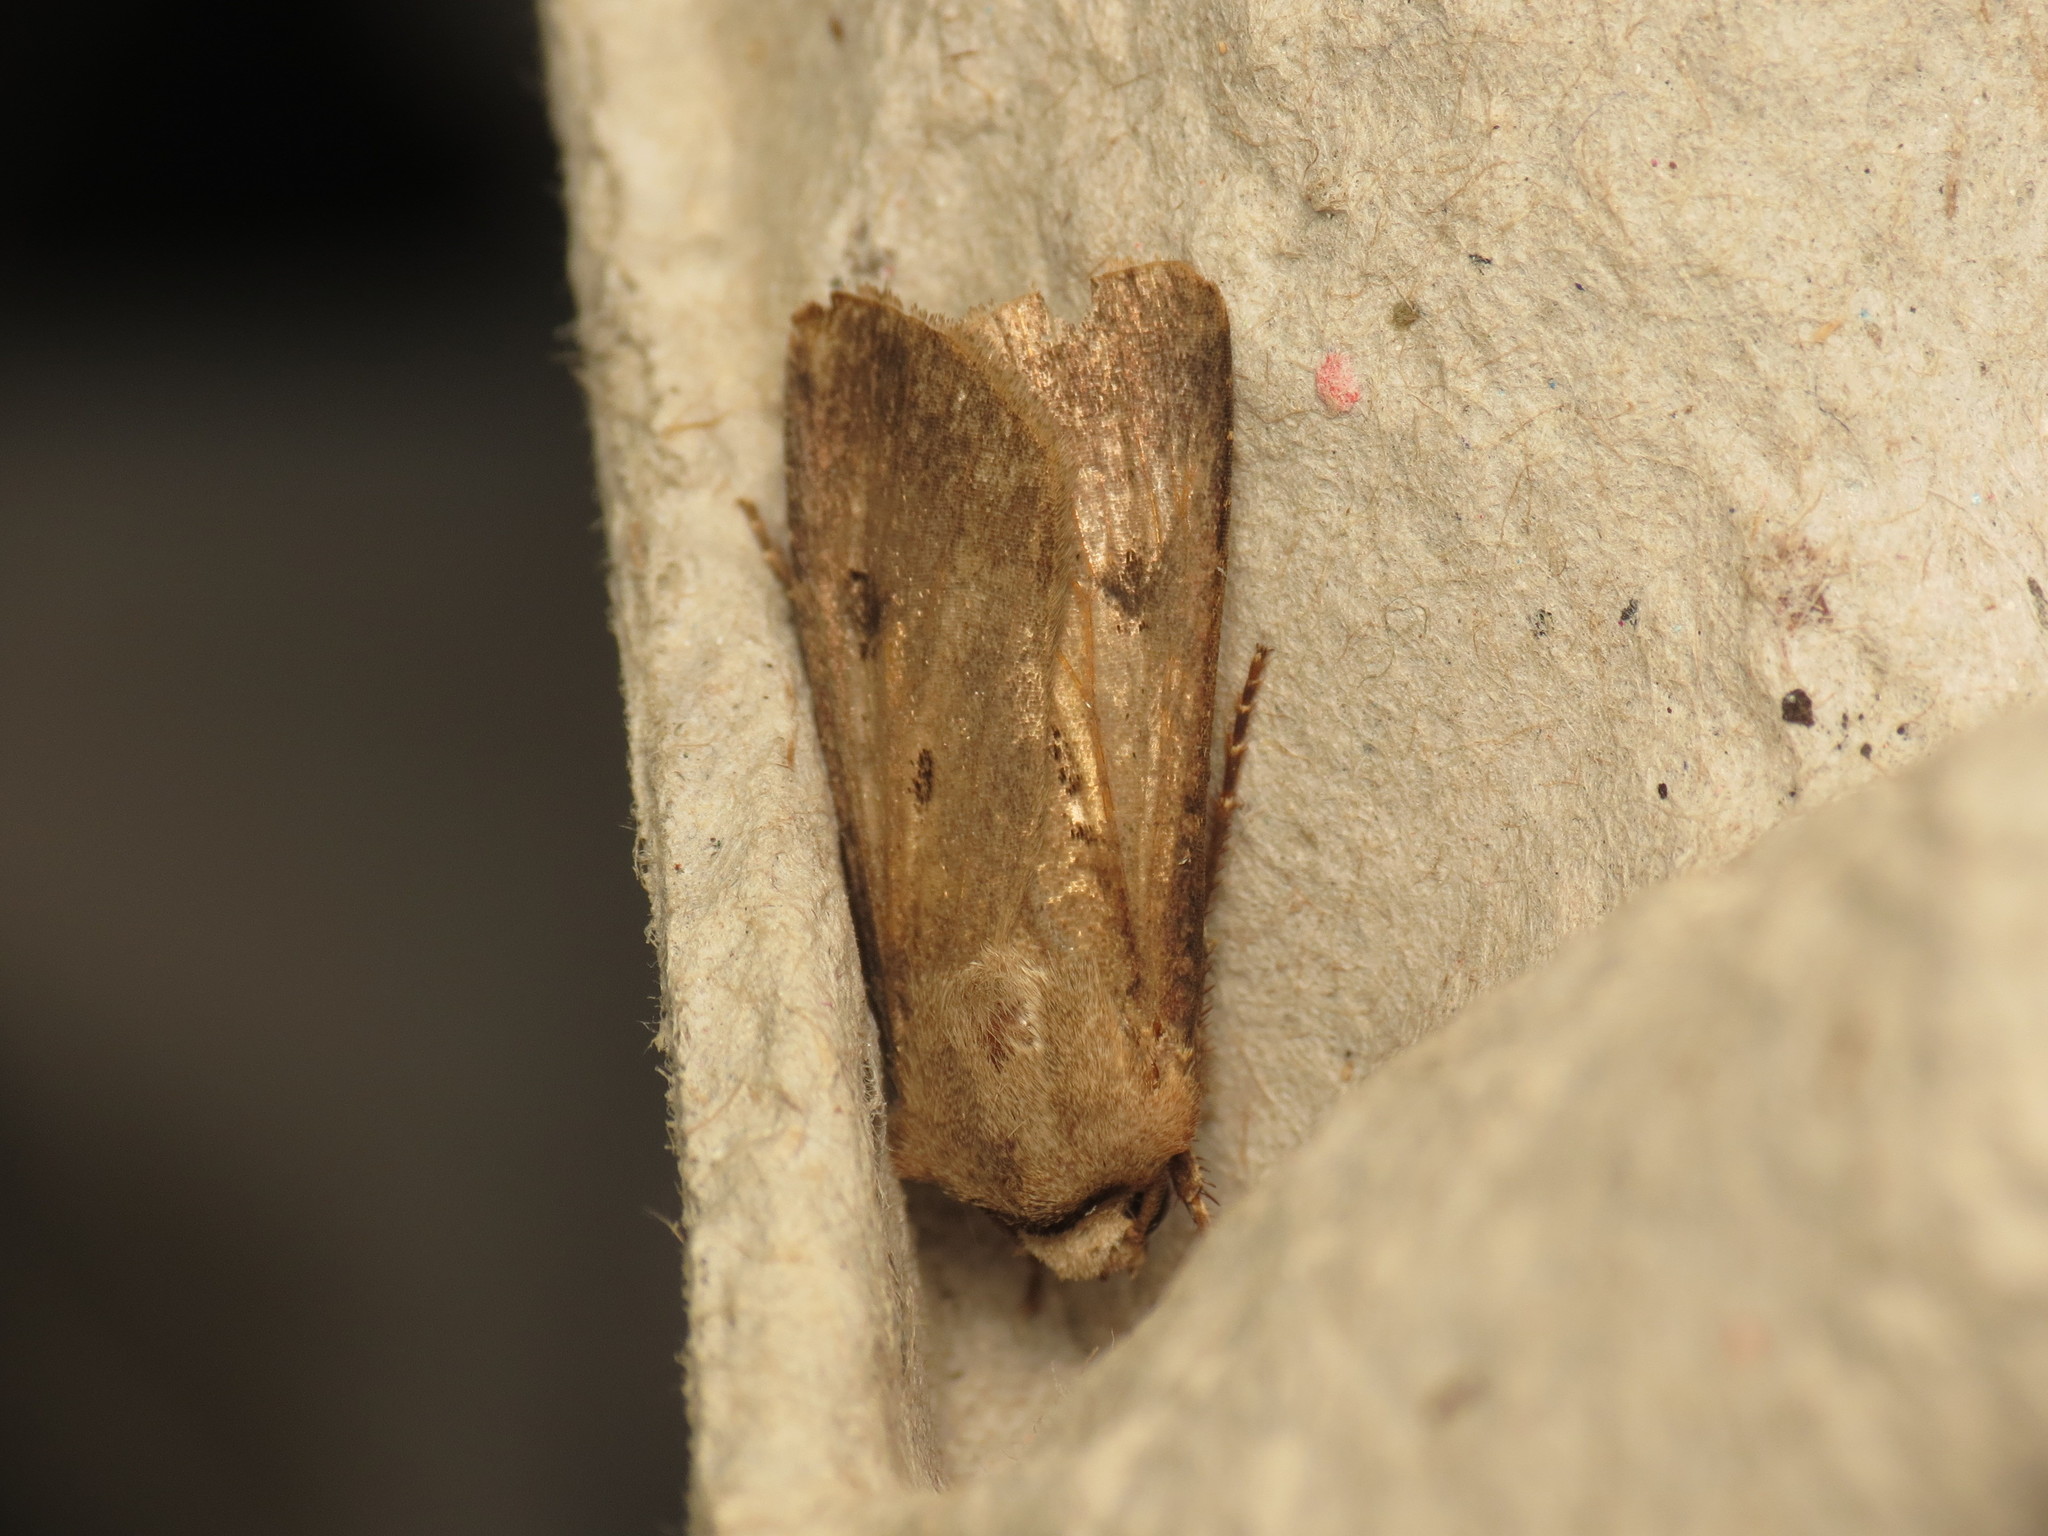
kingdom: Animalia
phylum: Arthropoda
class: Insecta
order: Lepidoptera
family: Noctuidae
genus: Agrotis
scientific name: Agrotis exclamationis
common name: Heart and dart
